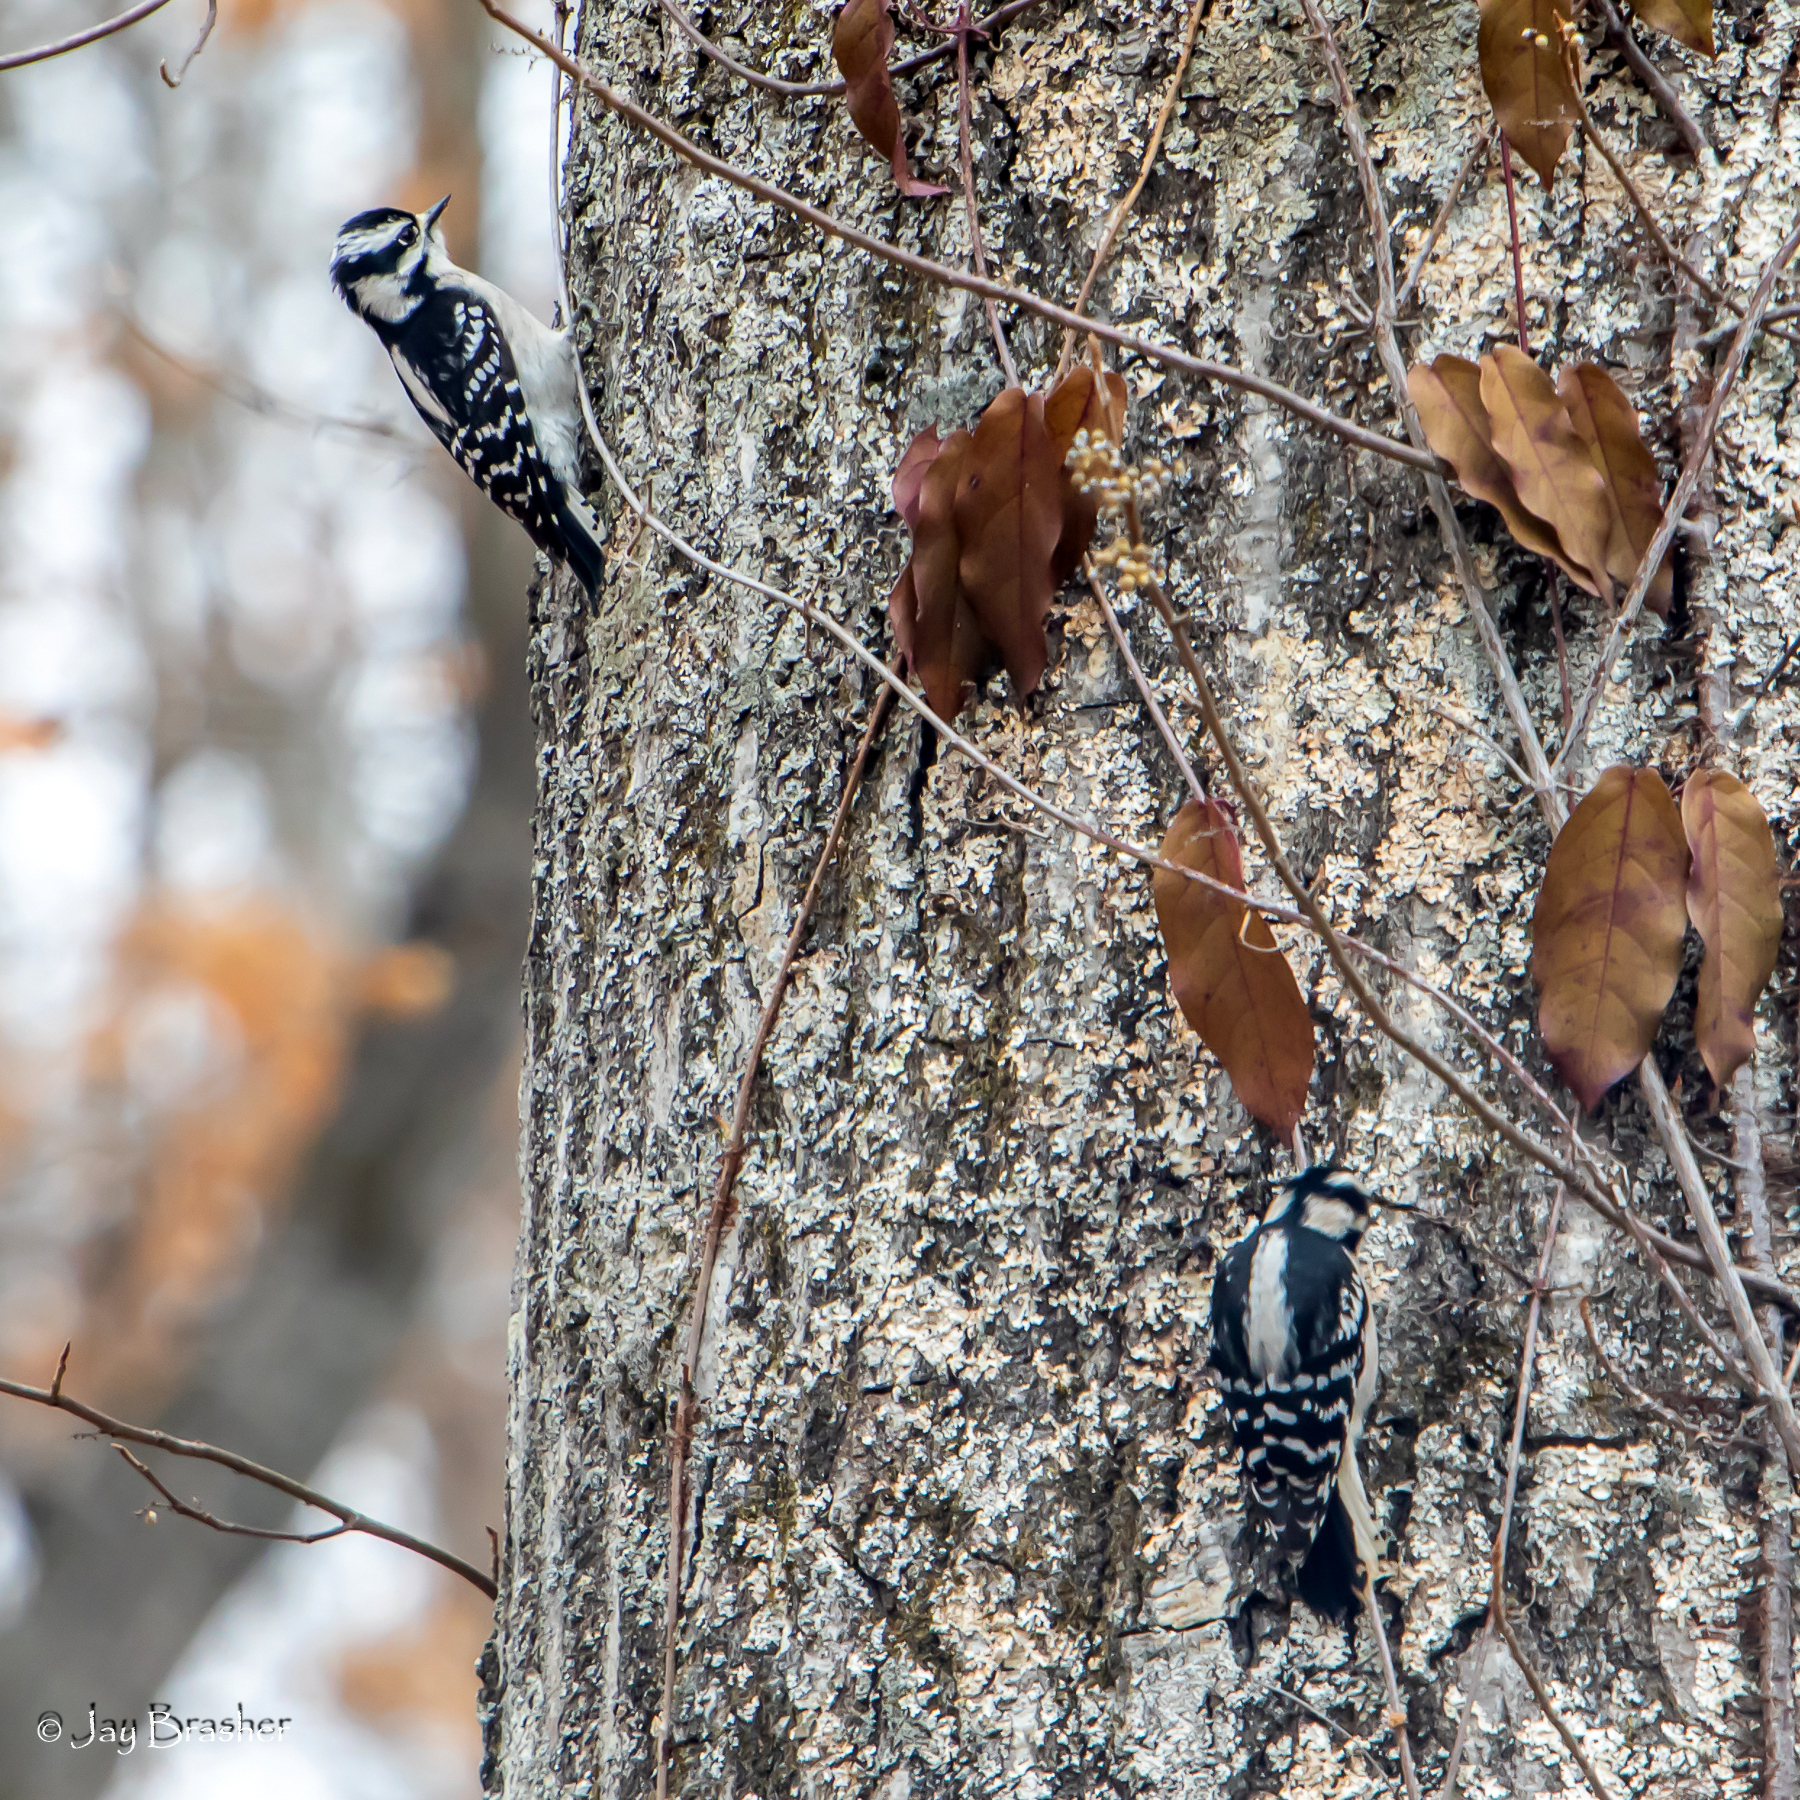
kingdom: Animalia
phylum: Chordata
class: Aves
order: Piciformes
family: Picidae
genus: Dryobates
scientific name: Dryobates pubescens
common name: Downy woodpecker
